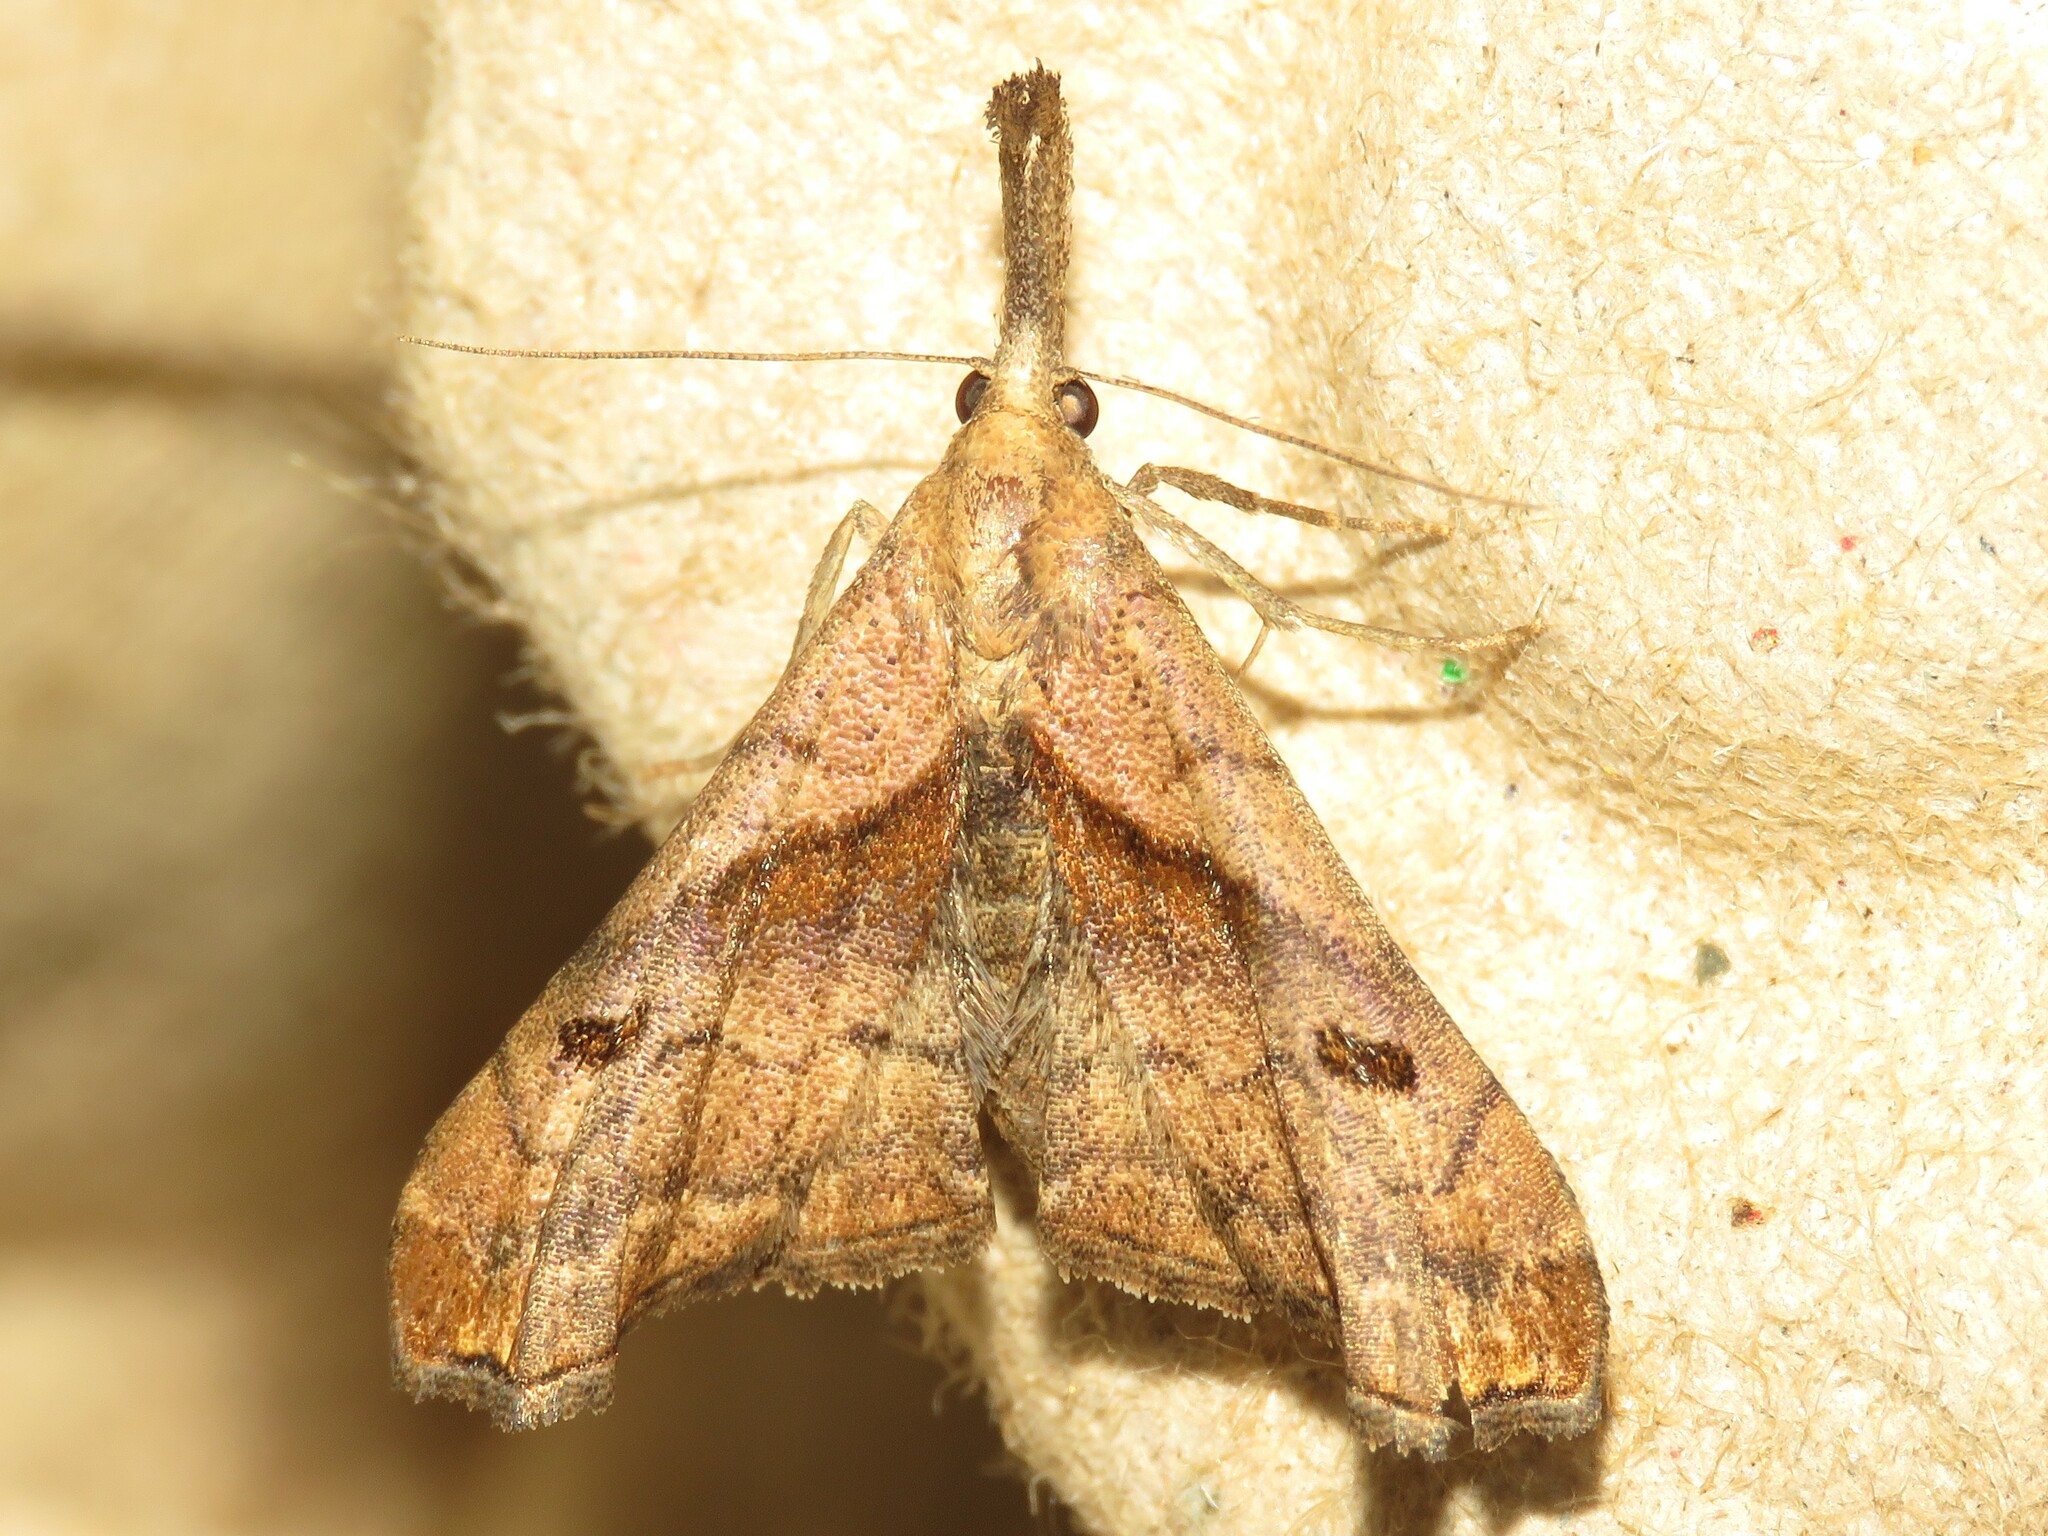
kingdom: Animalia
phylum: Arthropoda
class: Insecta
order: Lepidoptera
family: Erebidae
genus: Palthis
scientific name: Palthis angulalis
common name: Dark-spotted palthis moth
